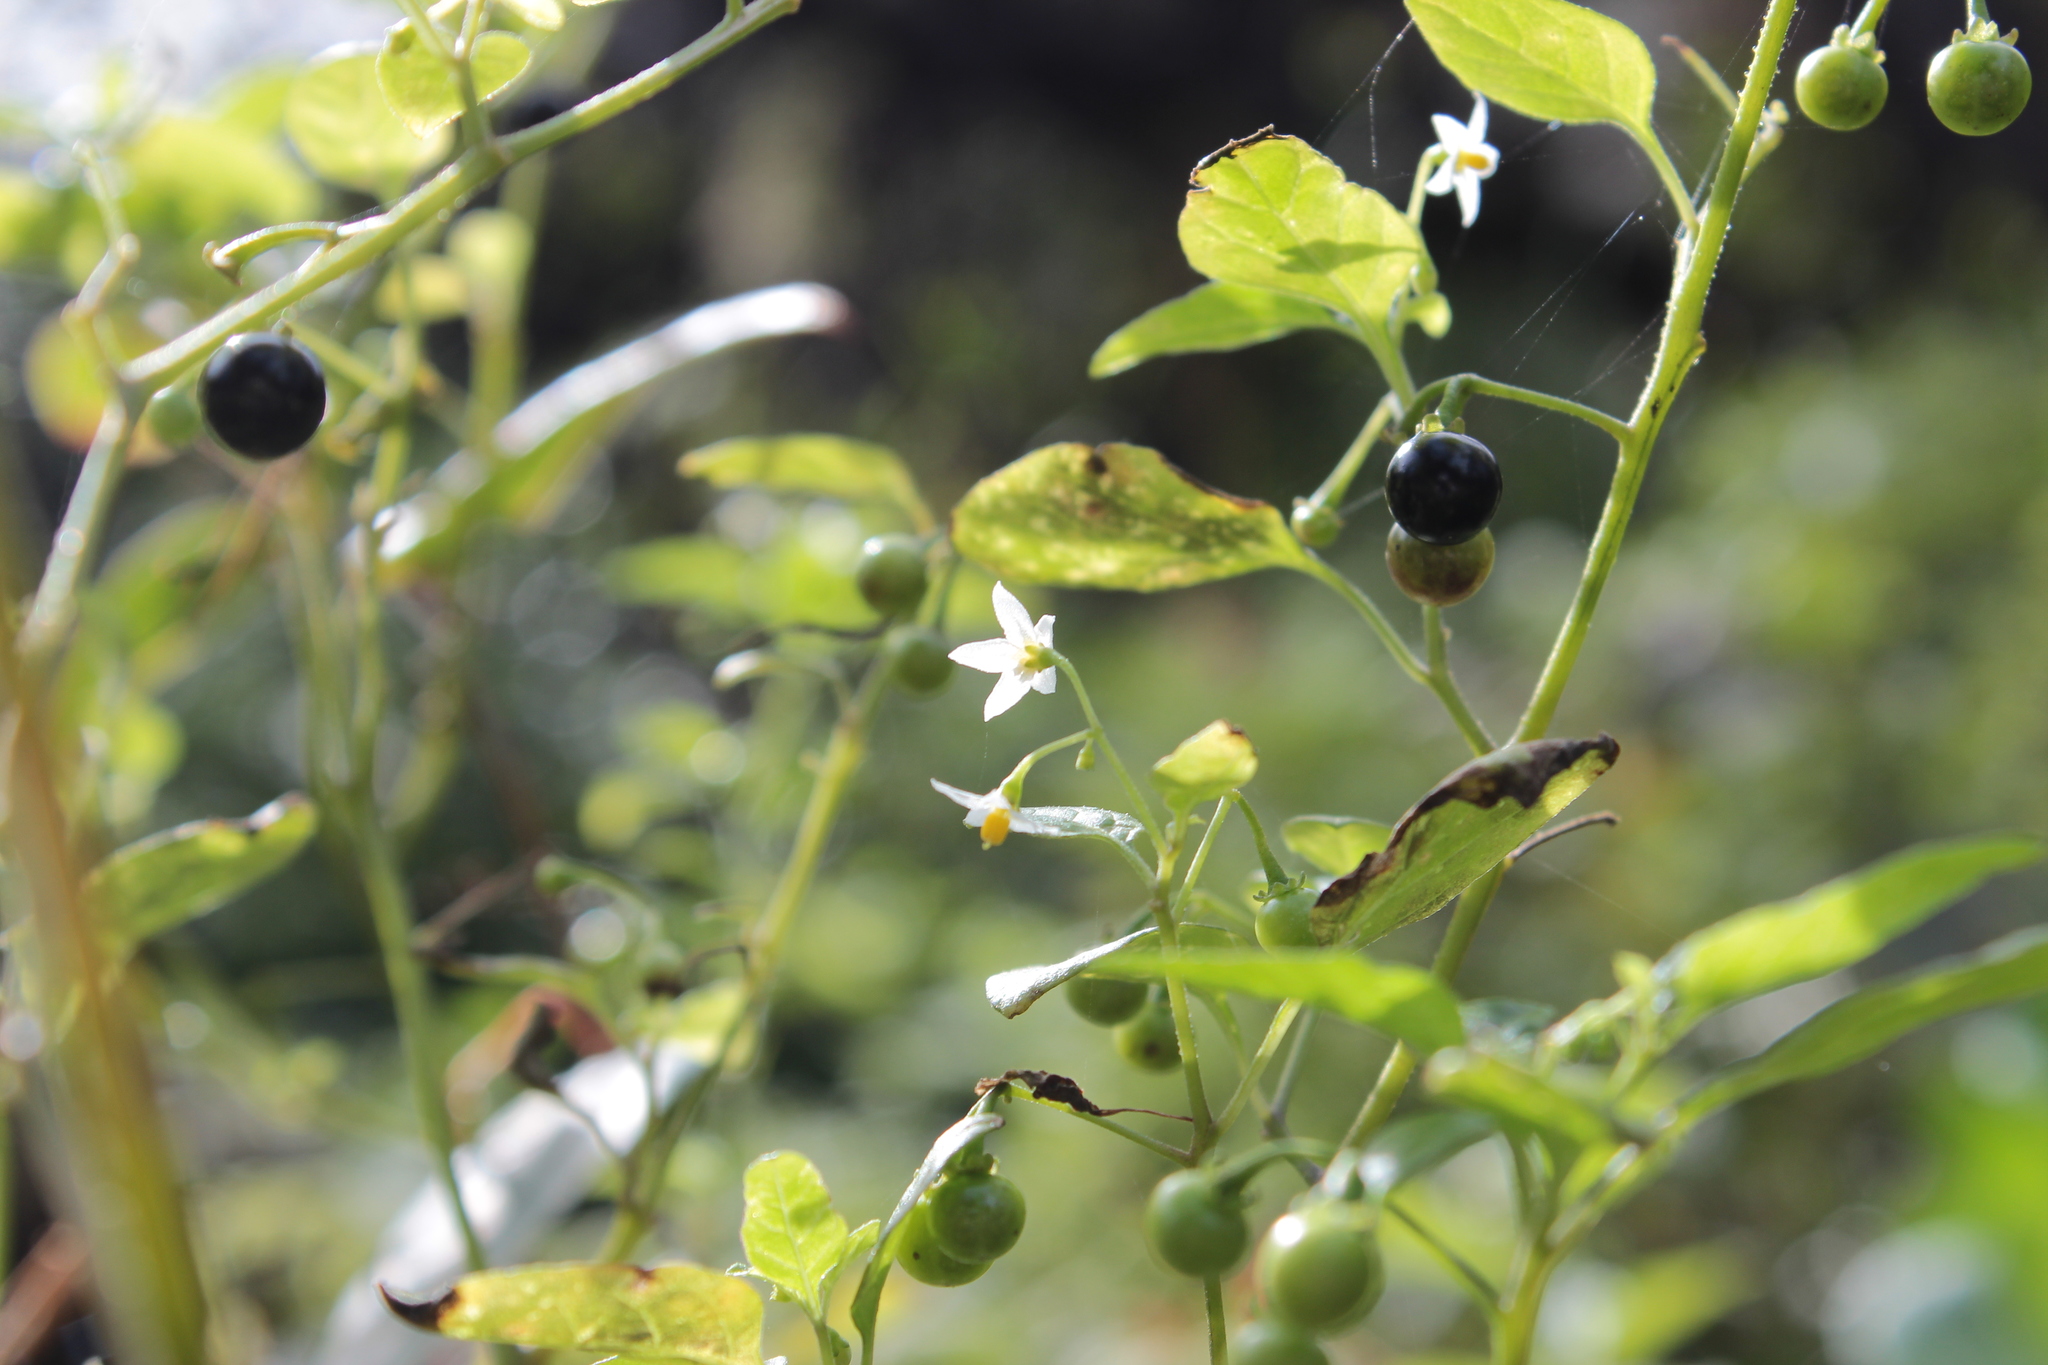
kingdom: Plantae
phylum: Tracheophyta
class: Magnoliopsida
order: Solanales
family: Solanaceae
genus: Solanum
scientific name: Solanum americanum
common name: American black nightshade
